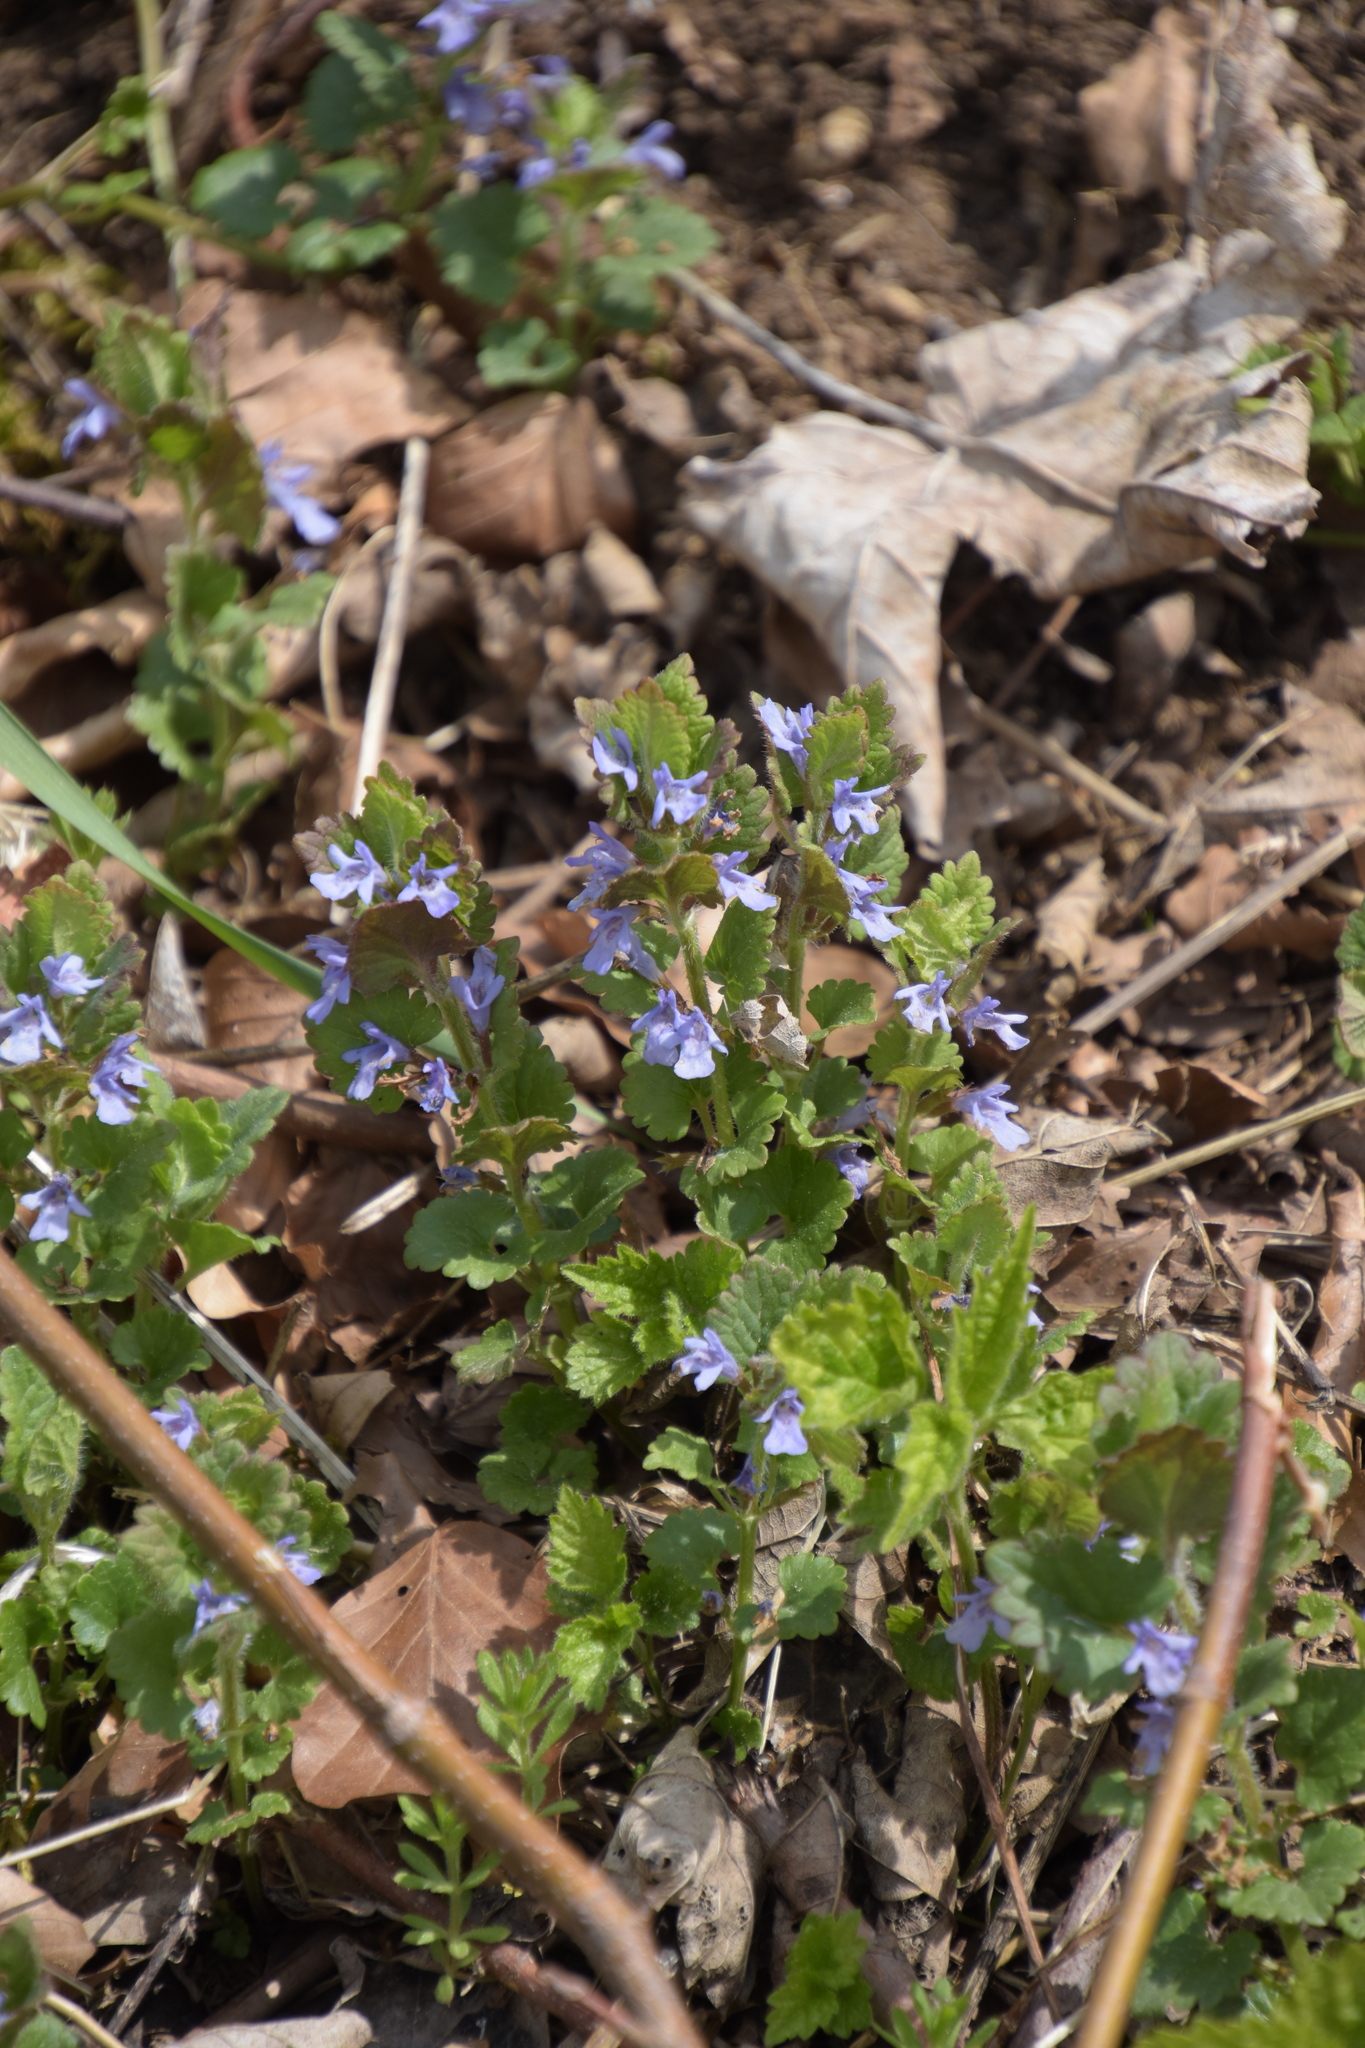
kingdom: Plantae
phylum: Tracheophyta
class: Magnoliopsida
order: Lamiales
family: Lamiaceae
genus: Glechoma
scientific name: Glechoma hederacea
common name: Ground ivy
